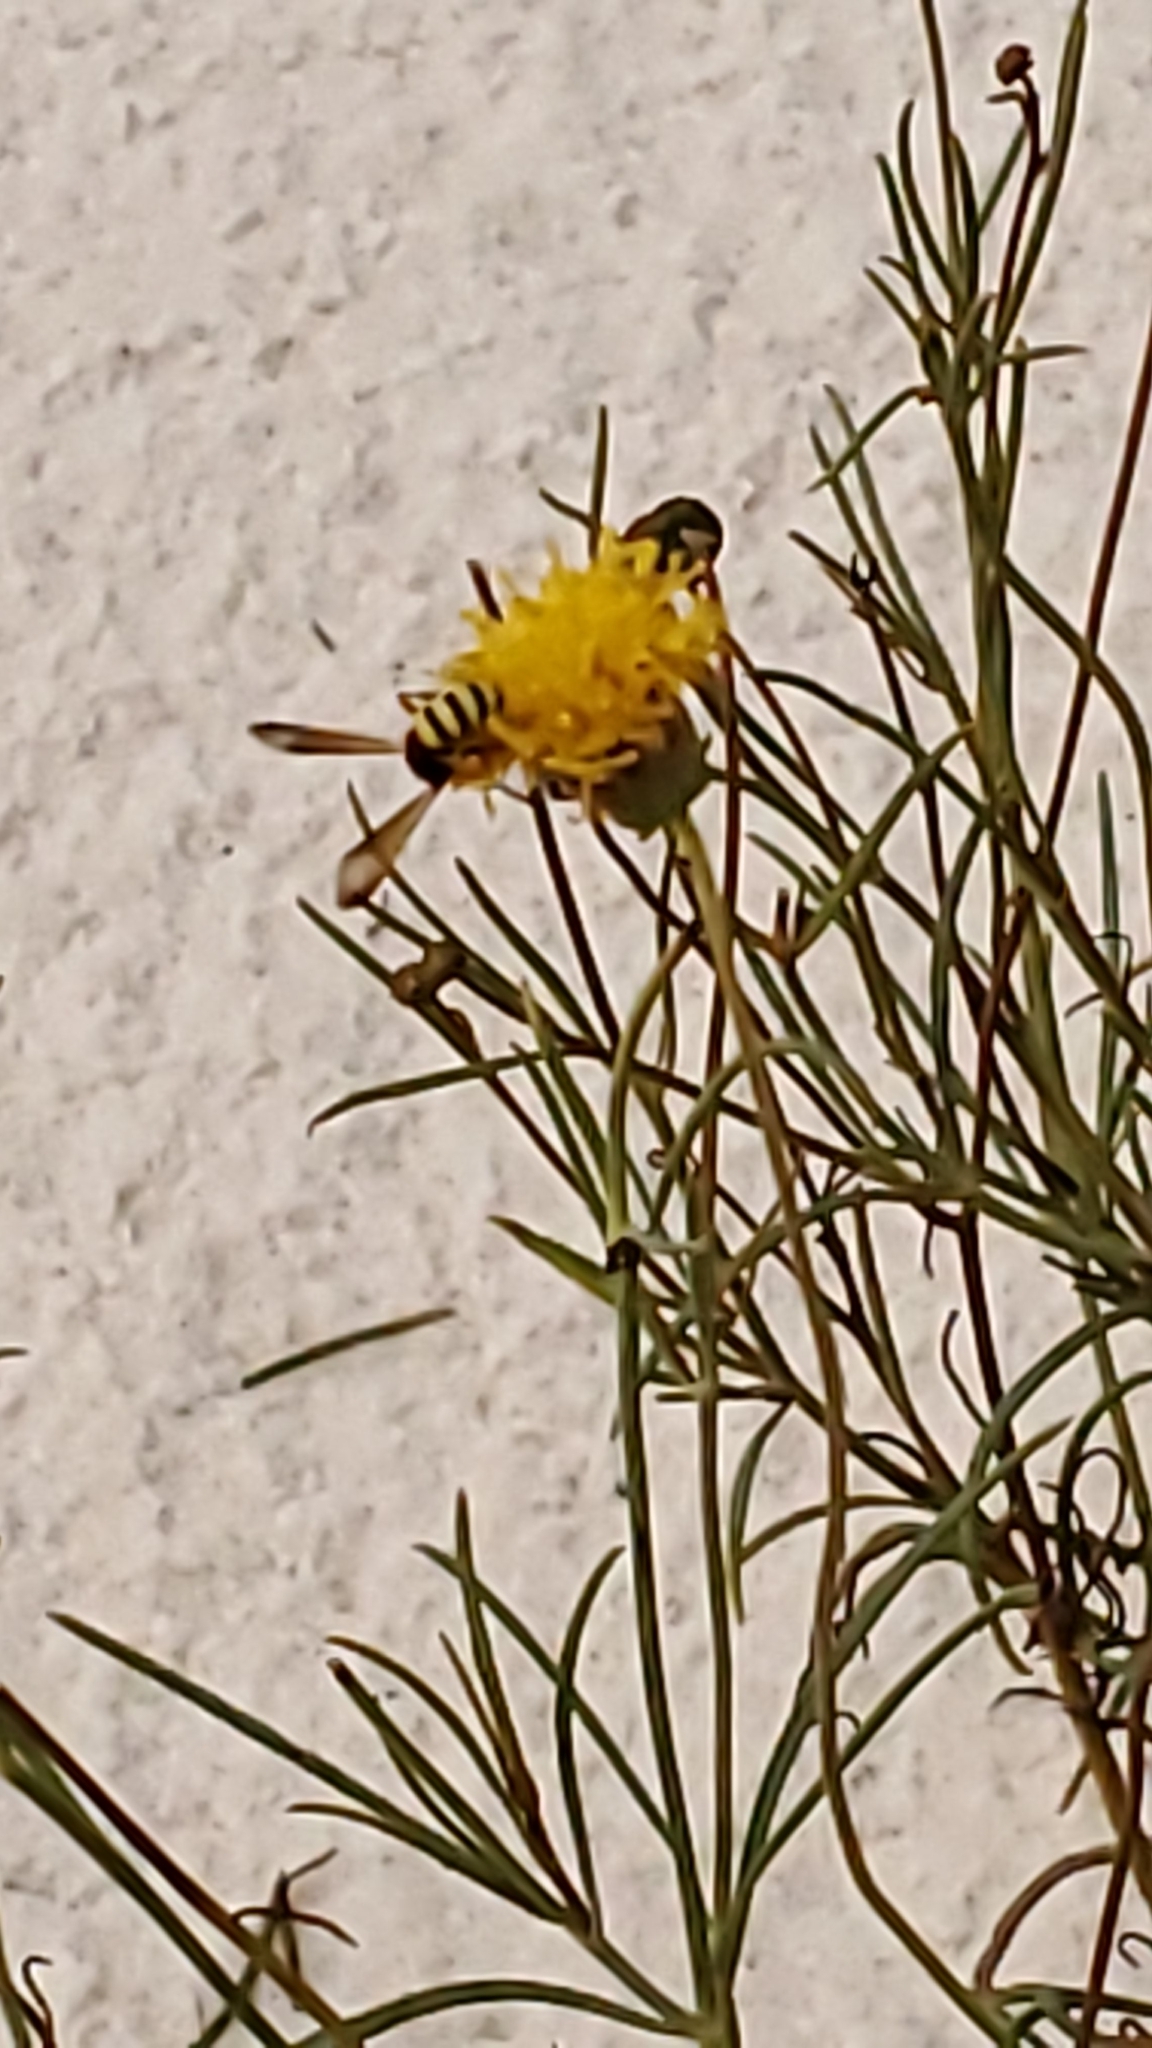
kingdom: Plantae
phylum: Tracheophyta
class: Magnoliopsida
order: Asterales
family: Asteraceae
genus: Thelesperma
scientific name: Thelesperma megapotamicum
